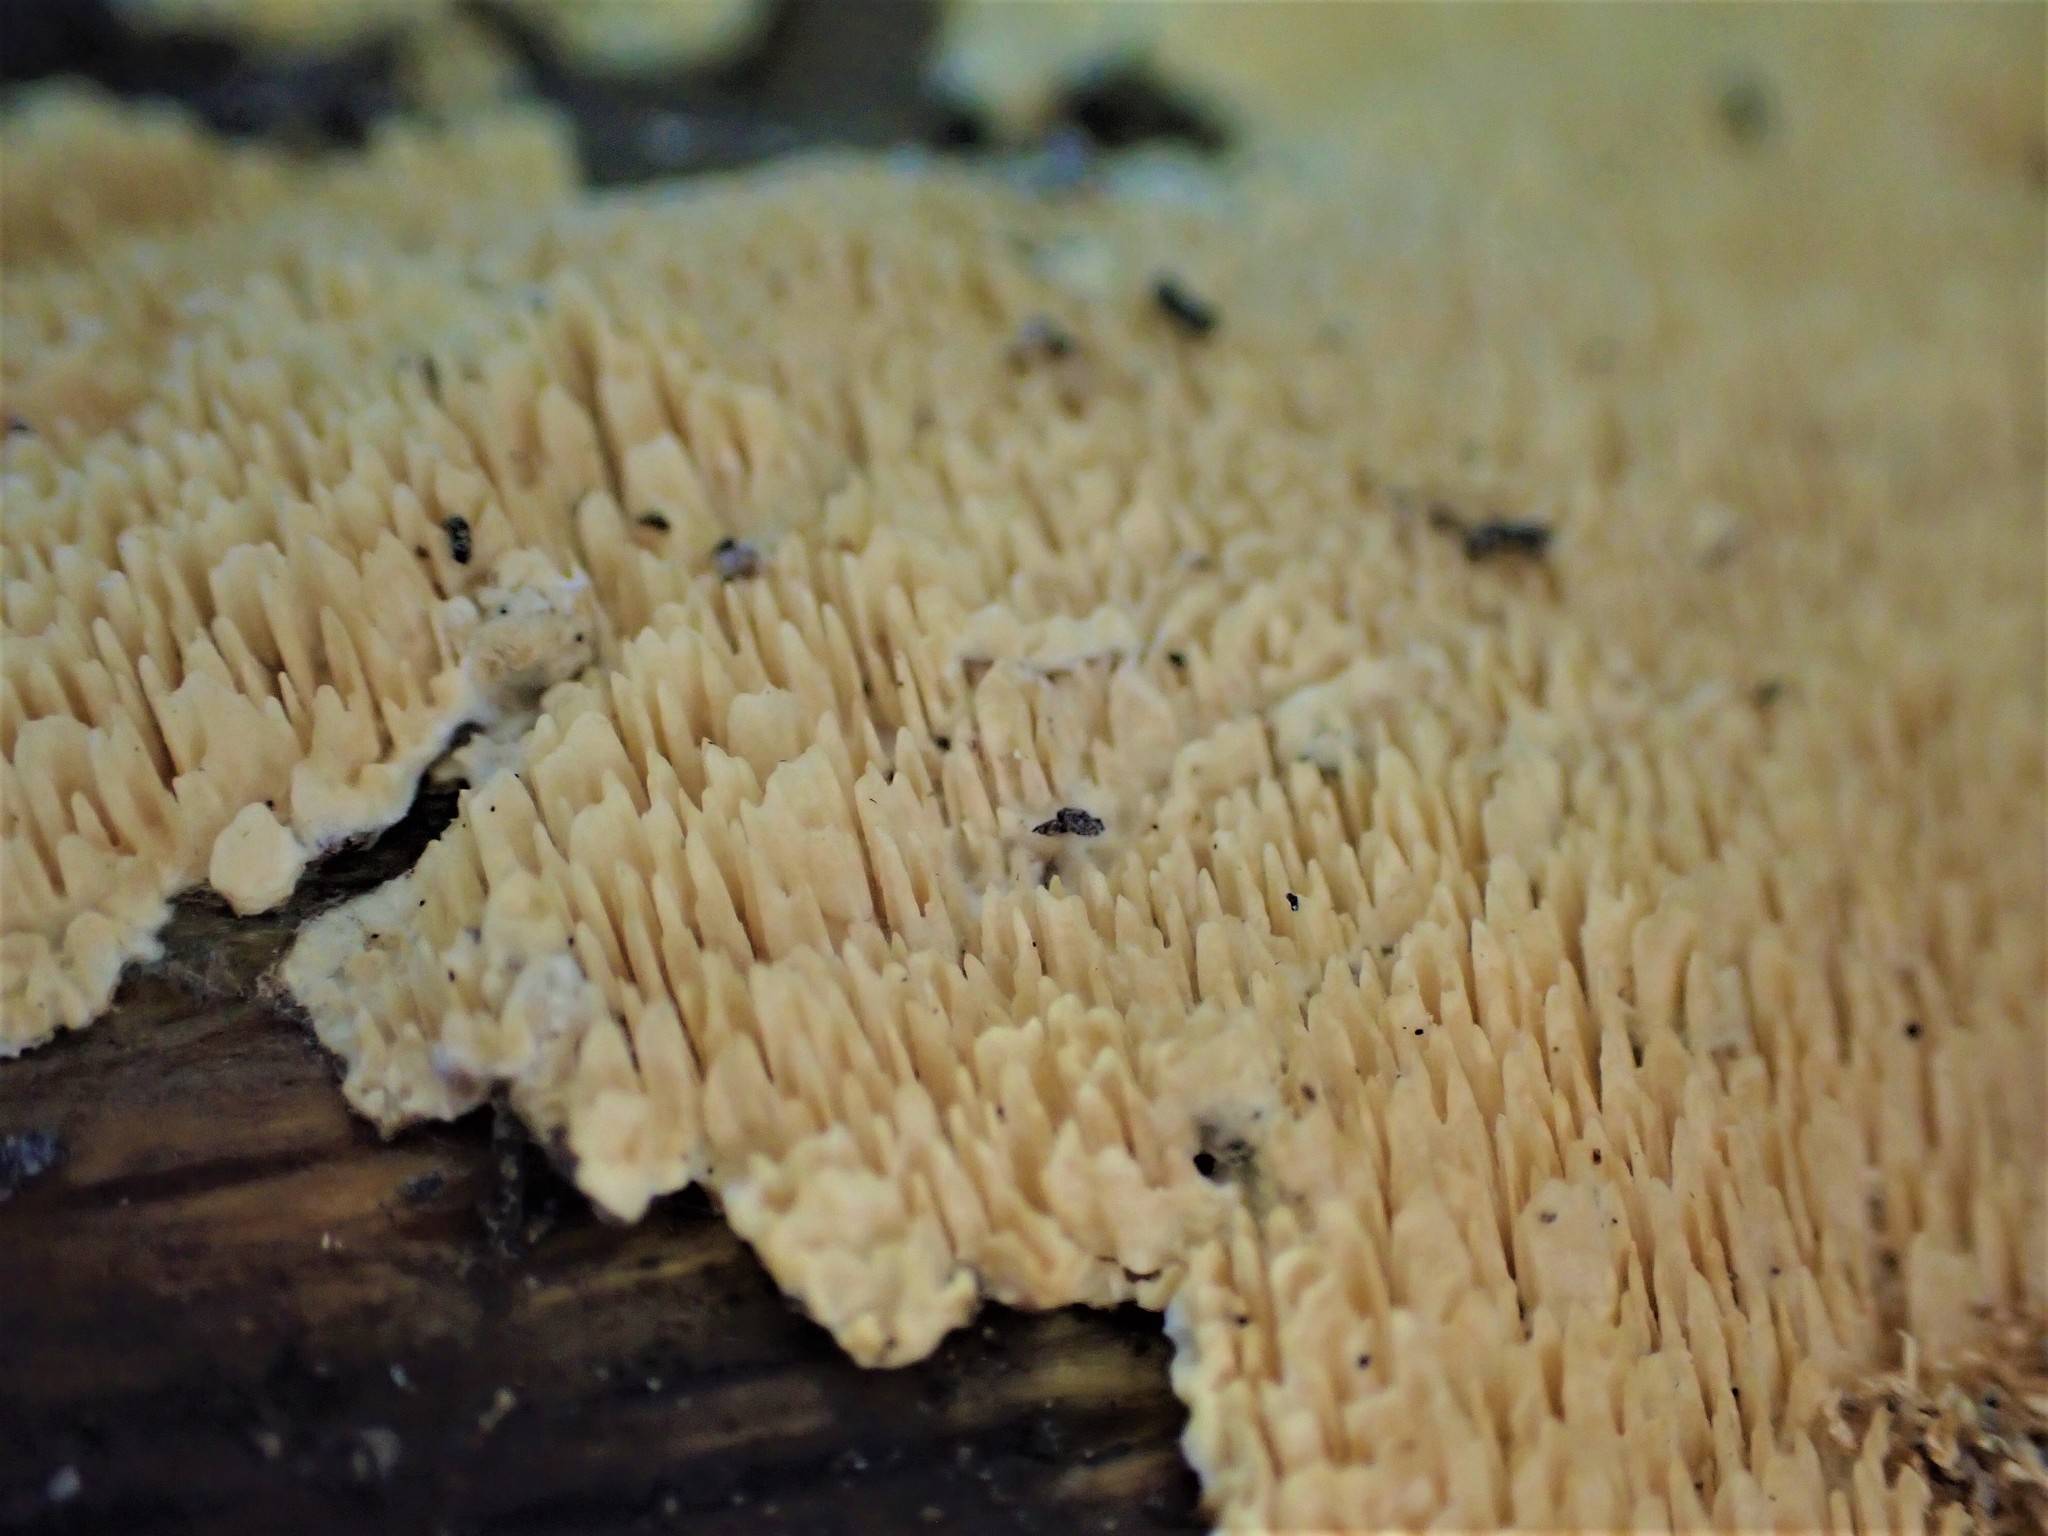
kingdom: Fungi
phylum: Basidiomycota
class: Agaricomycetes
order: Polyporales
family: Meruliaceae
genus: Mycoacia
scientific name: Mycoacia nothofagi
